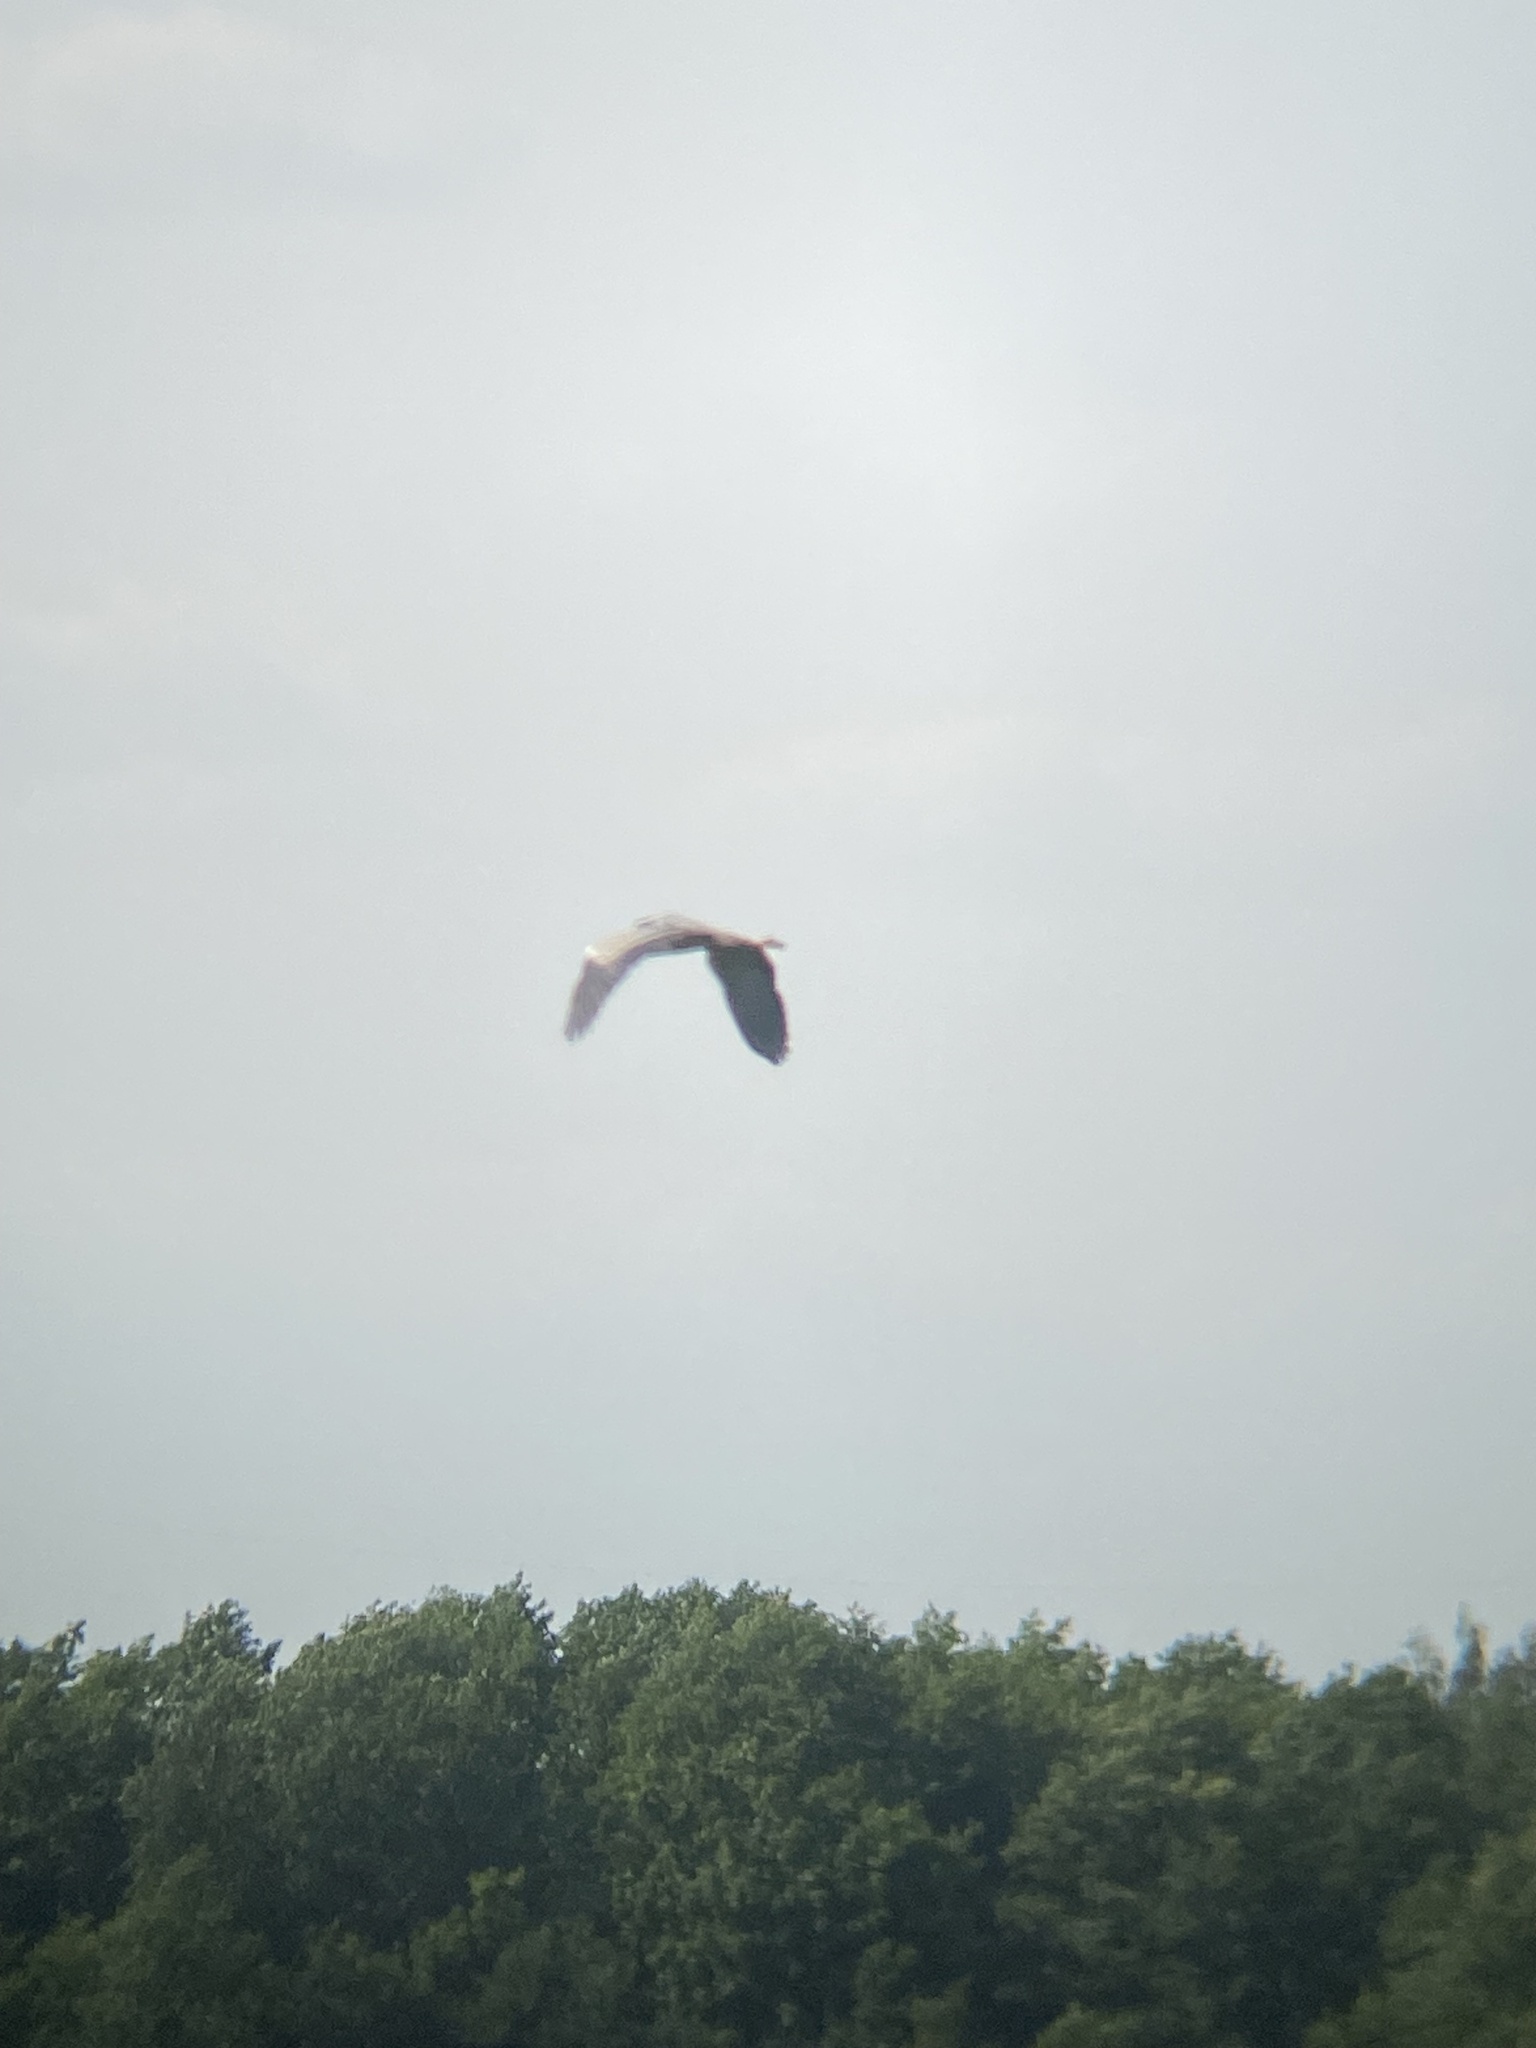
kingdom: Animalia
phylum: Chordata
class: Aves
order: Pelecaniformes
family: Ardeidae
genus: Ardea
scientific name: Ardea cinerea
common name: Grey heron
